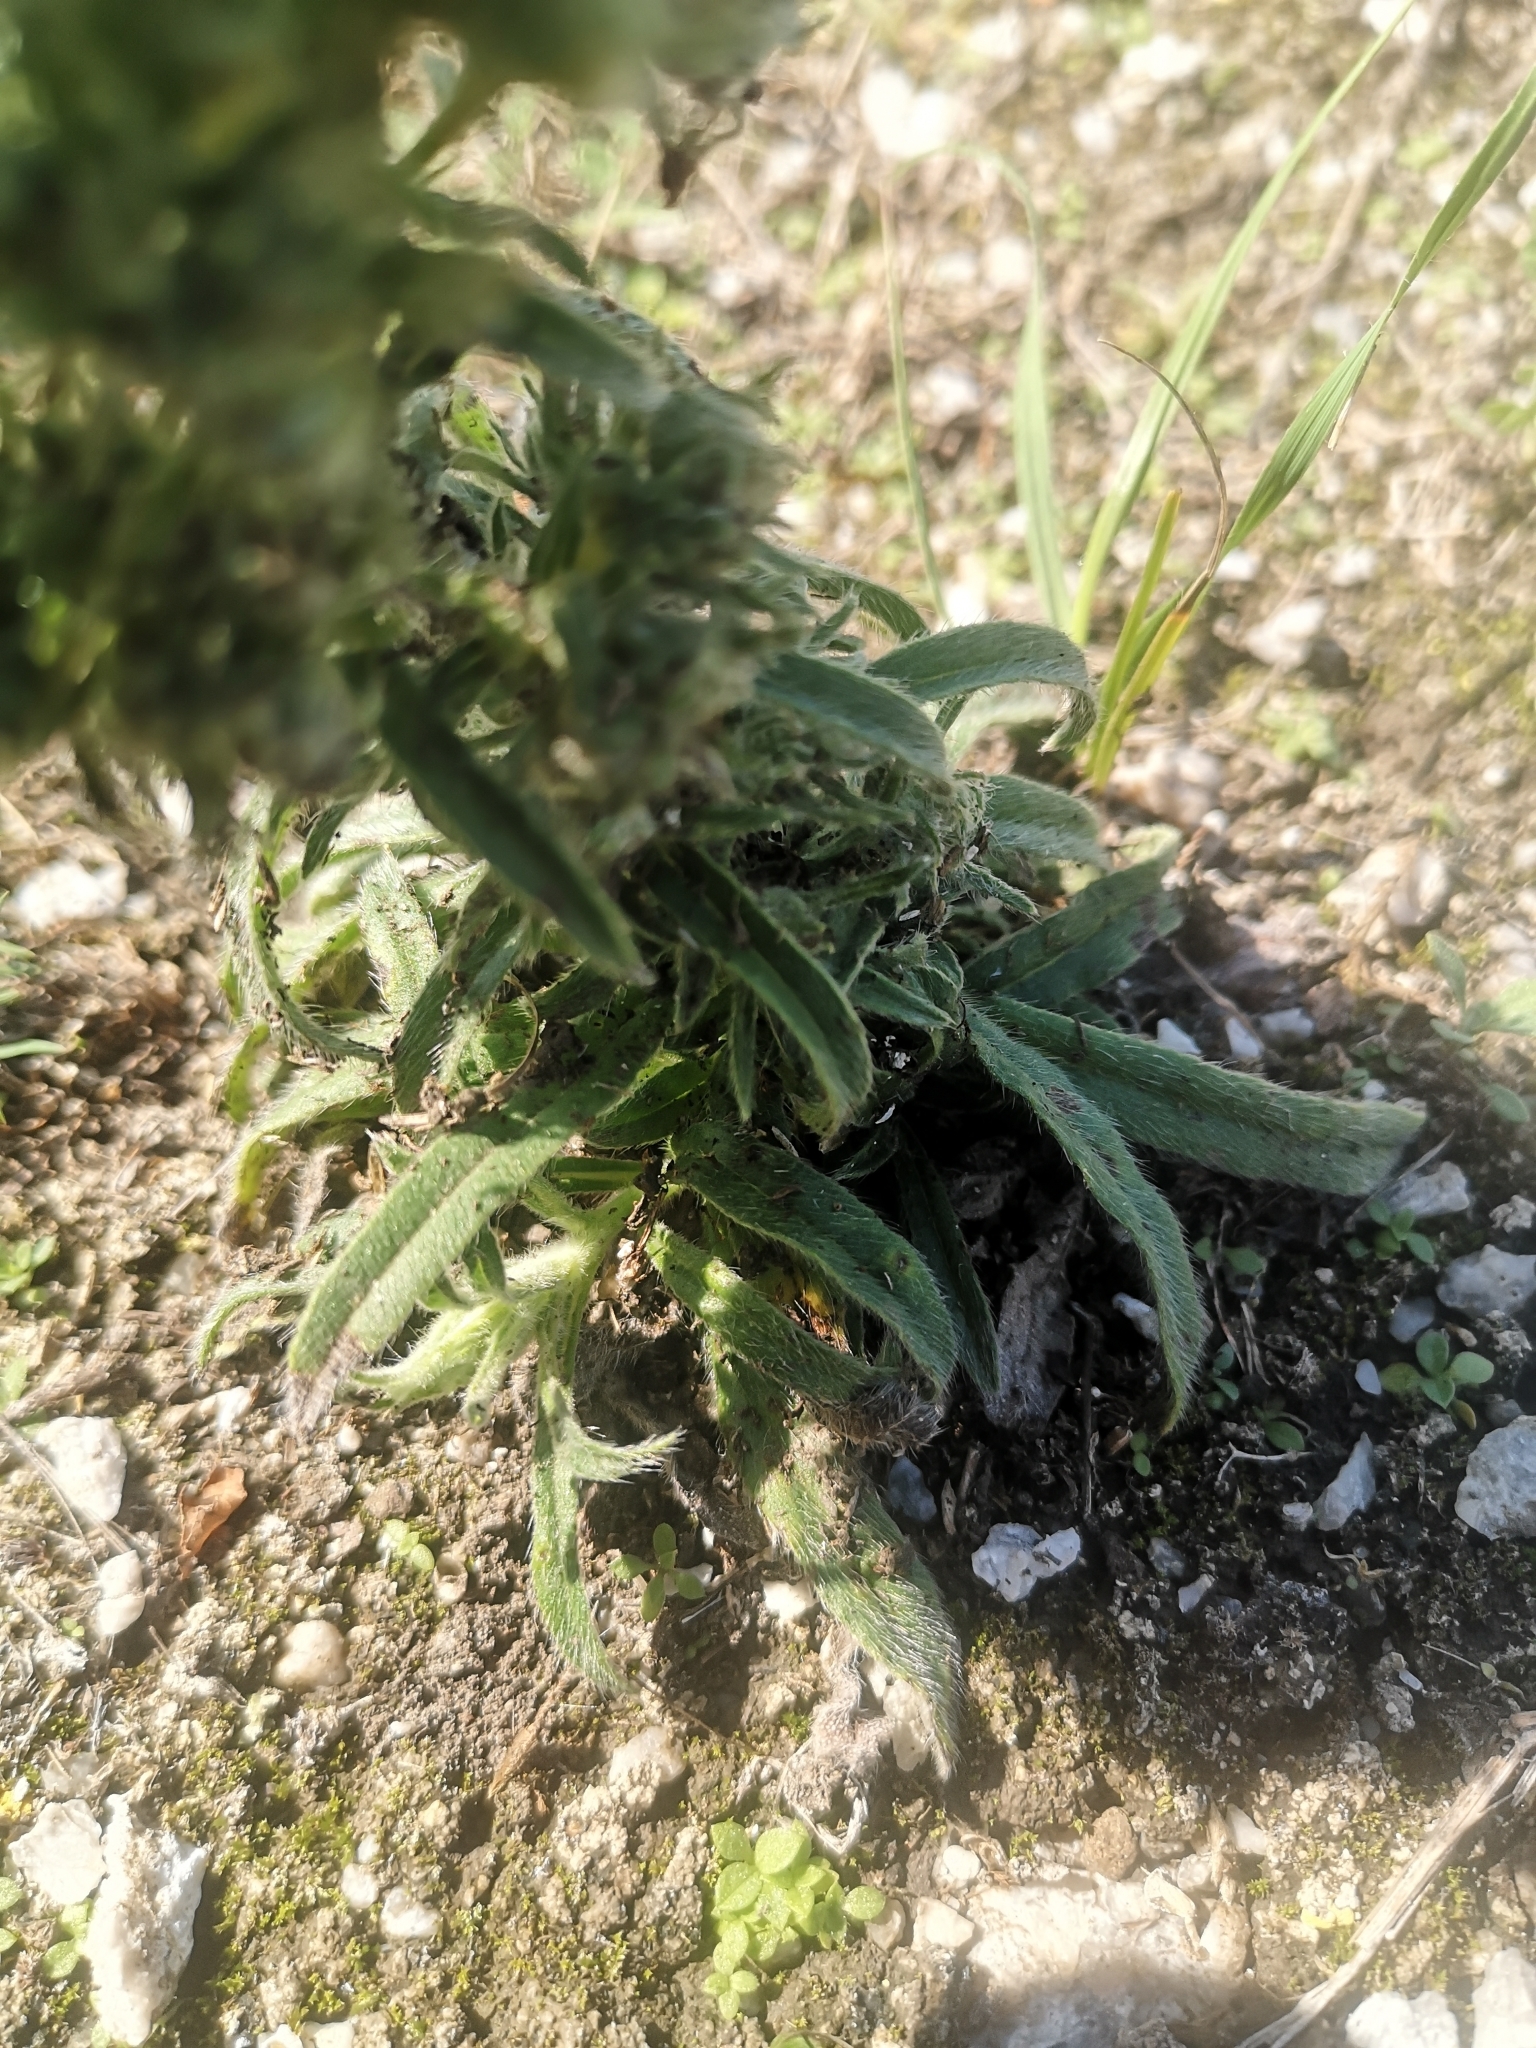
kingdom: Animalia
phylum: Arthropoda
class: Arachnida
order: Trombidiformes
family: Eriophyidae
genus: Aceria
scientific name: Aceria echii
